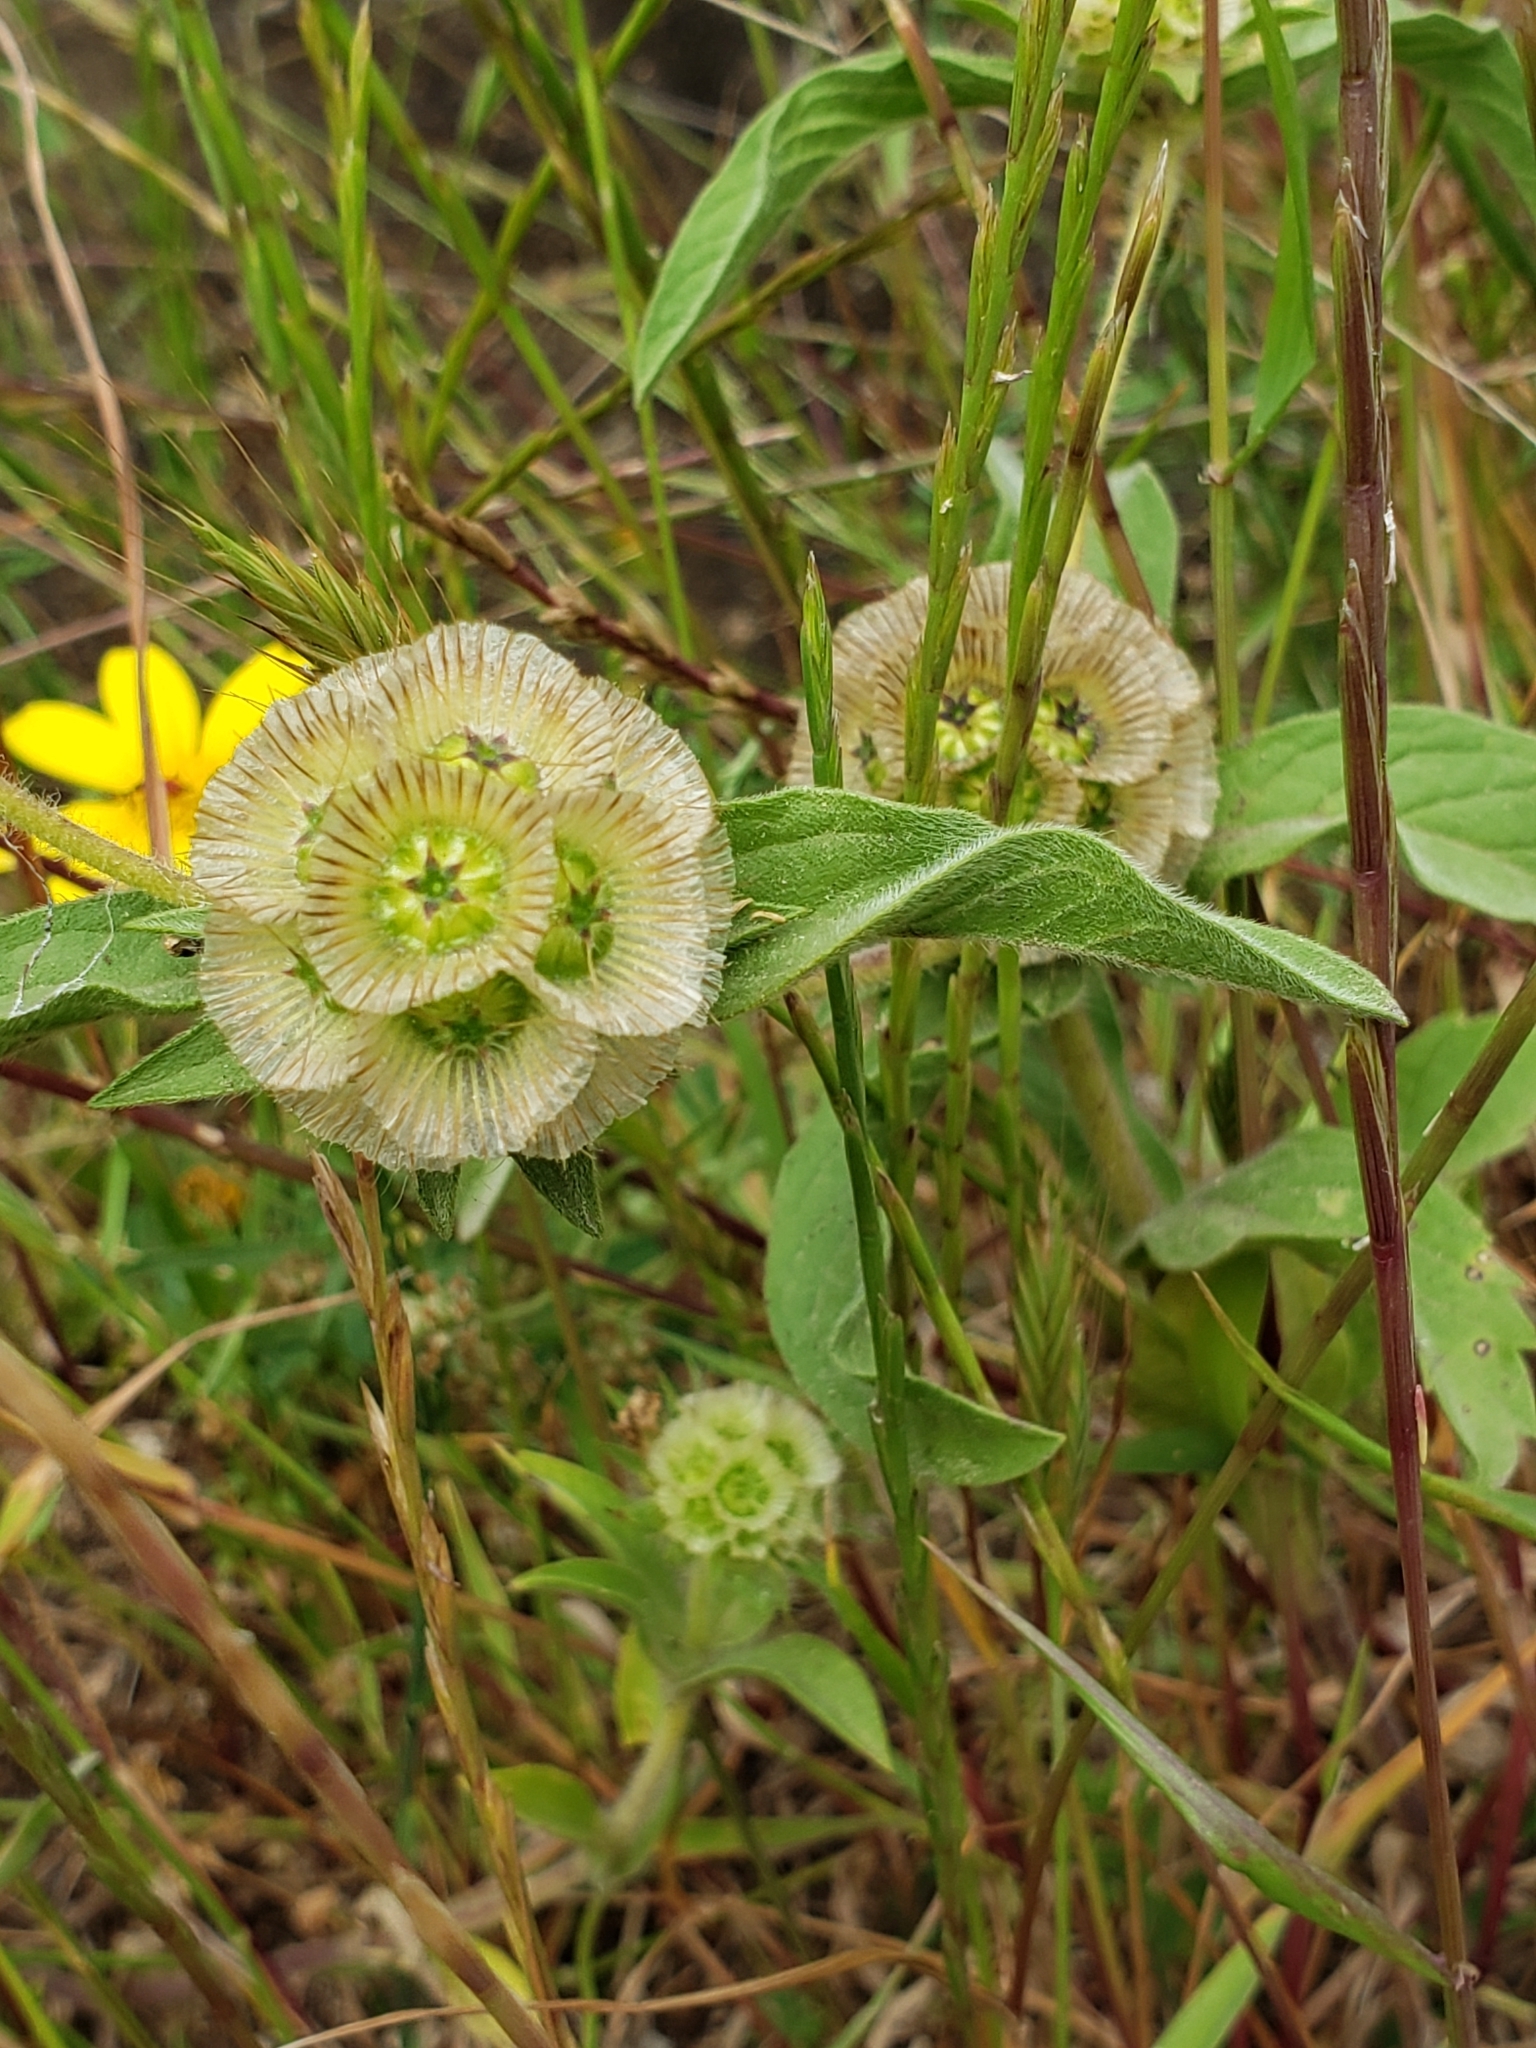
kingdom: Plantae
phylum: Tracheophyta
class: Magnoliopsida
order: Dipsacales
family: Caprifoliaceae
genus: Lomelosia
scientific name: Lomelosia prolifera
